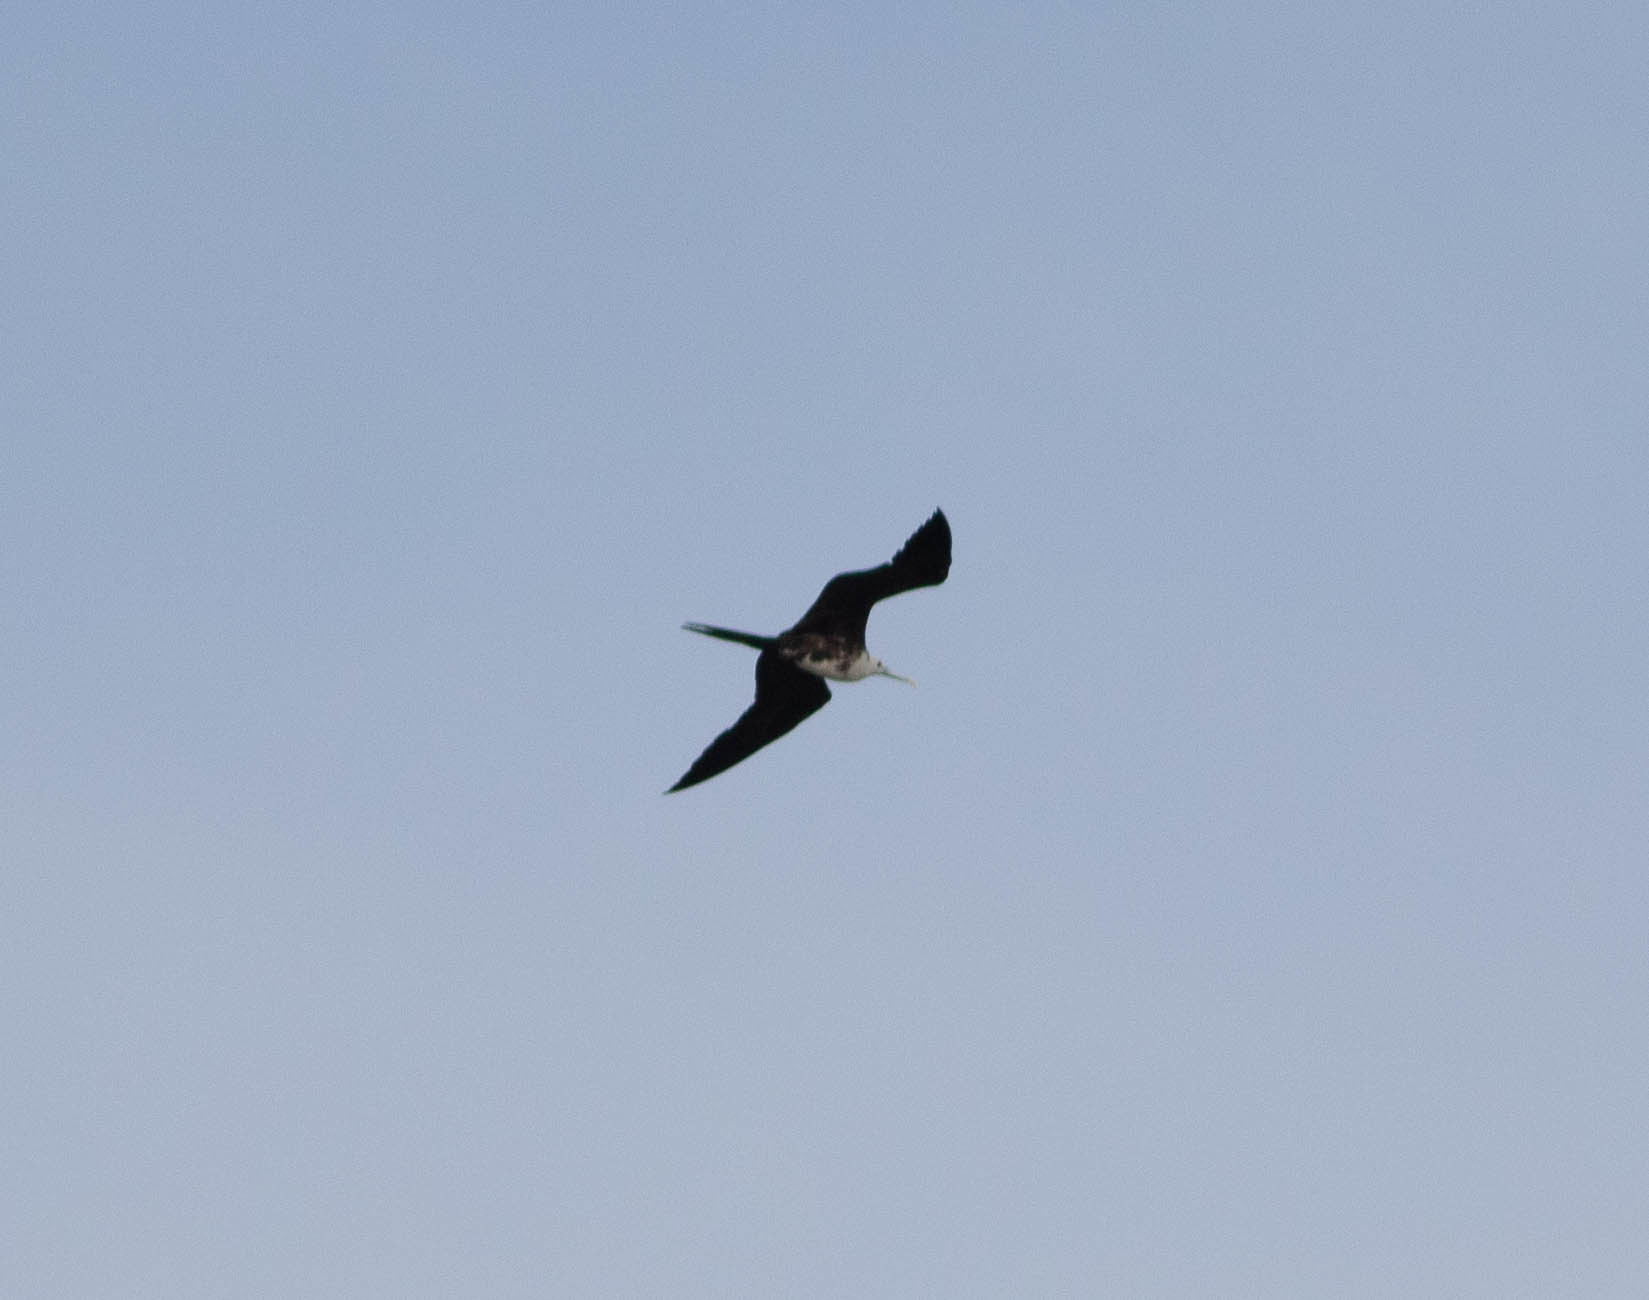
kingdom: Animalia
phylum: Chordata
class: Aves
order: Suliformes
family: Fregatidae
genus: Fregata
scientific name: Fregata magnificens
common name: Magnificent frigatebird
